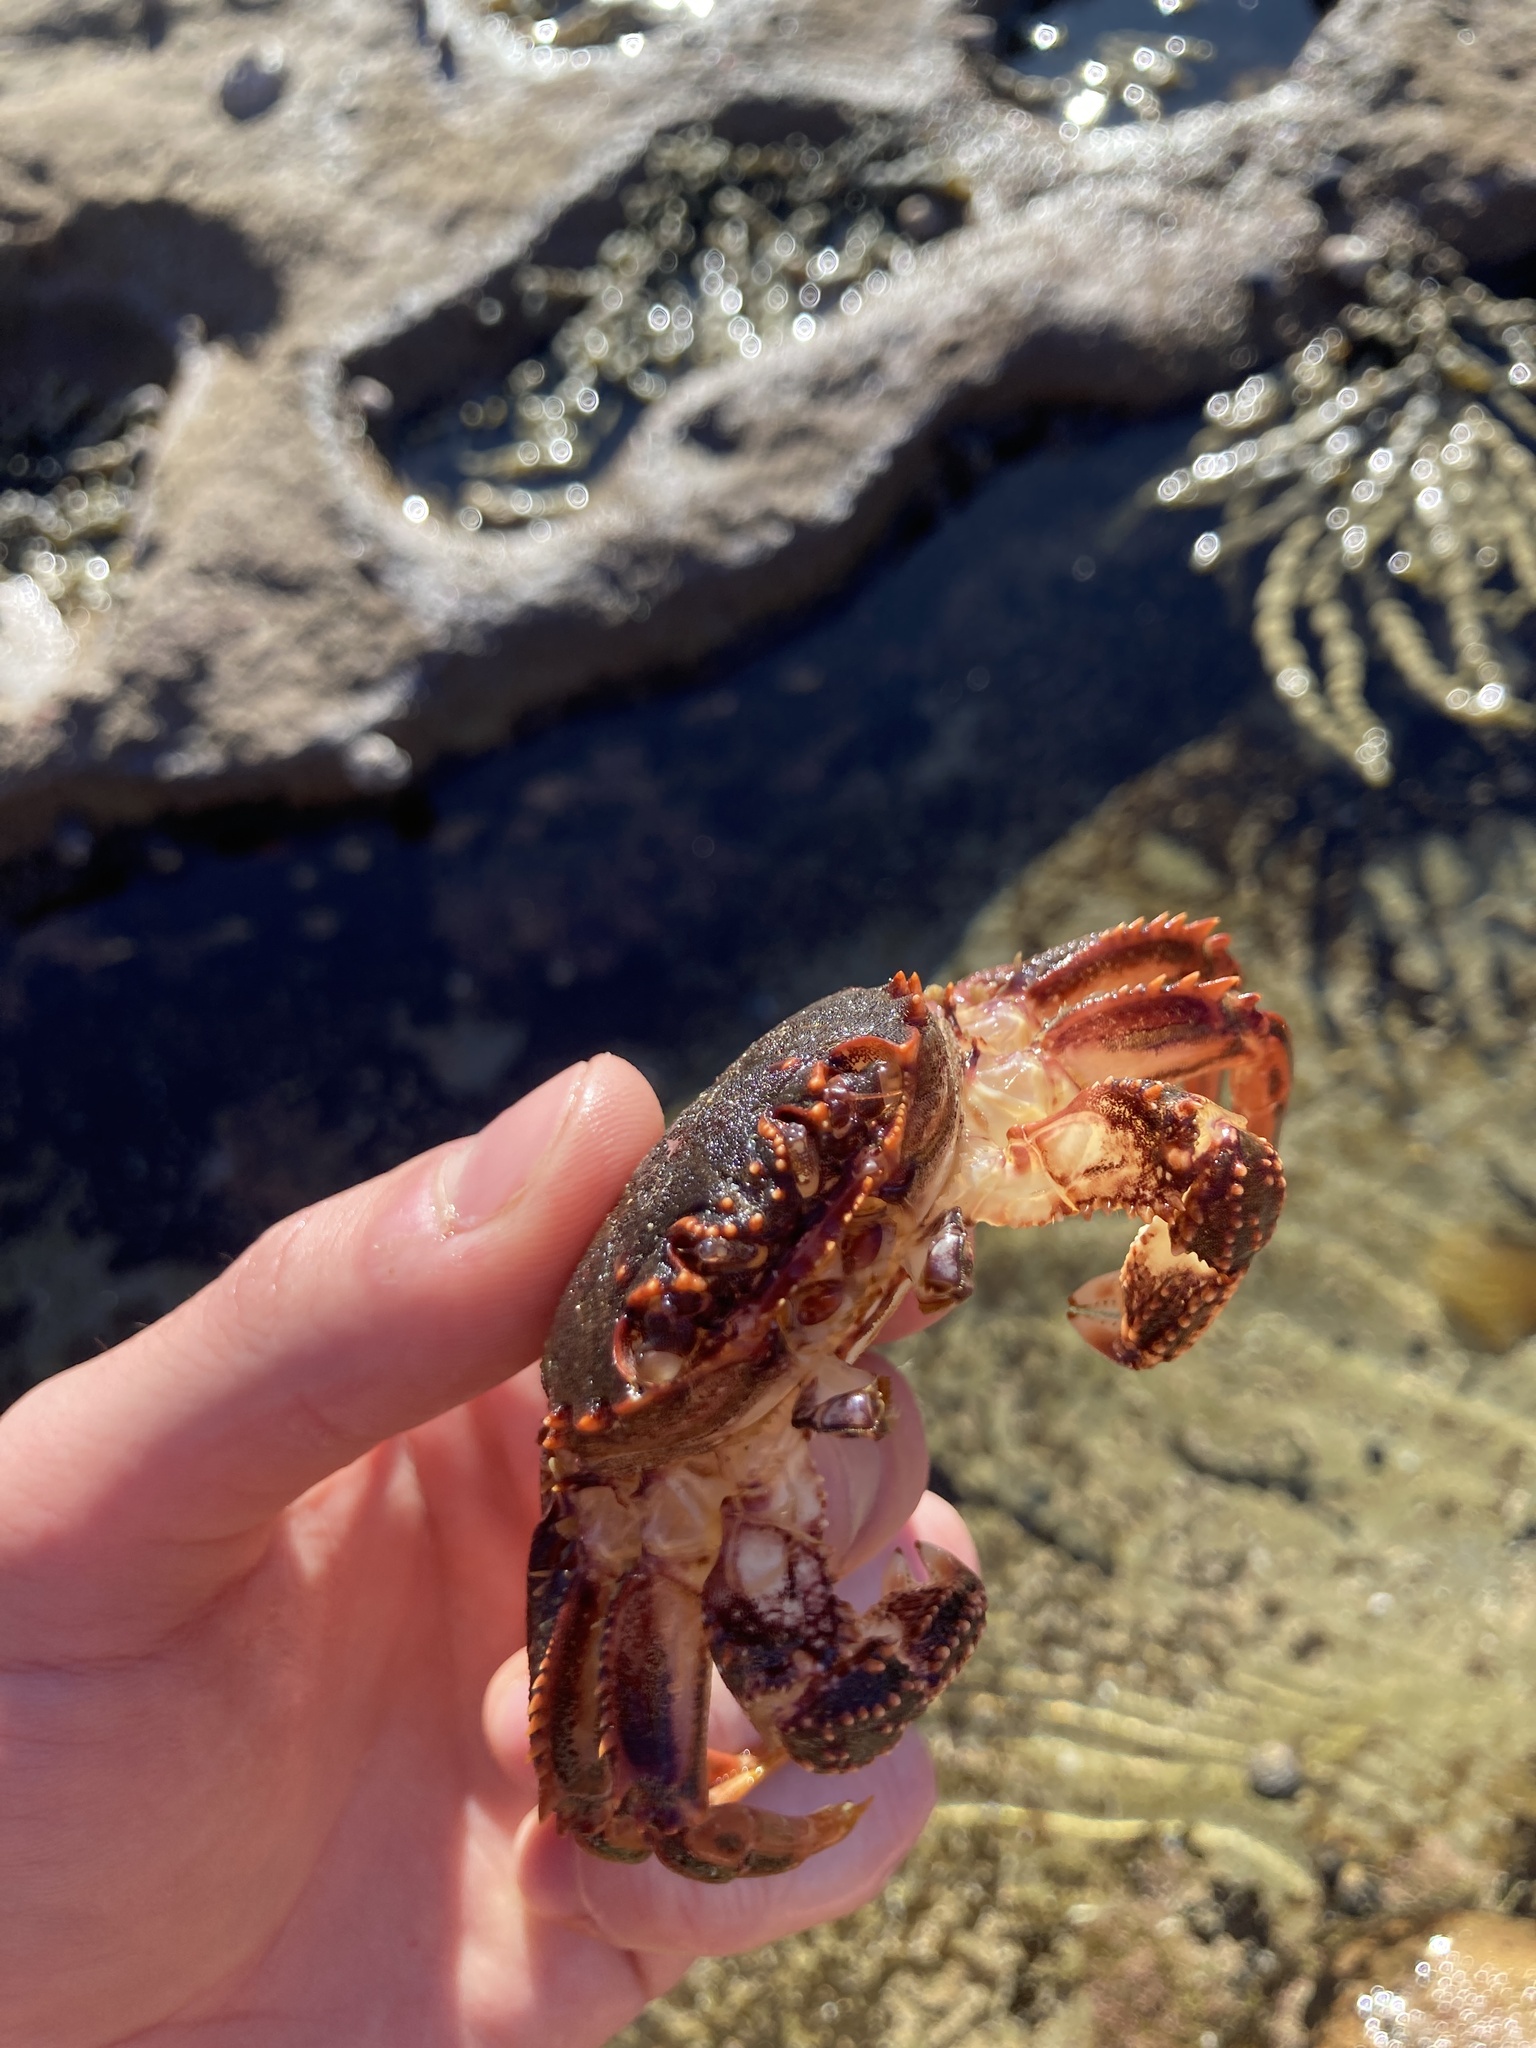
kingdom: Animalia
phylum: Arthropoda
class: Malacostraca
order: Decapoda
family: Plagusiidae
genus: Guinusia
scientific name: Guinusia chabrus
